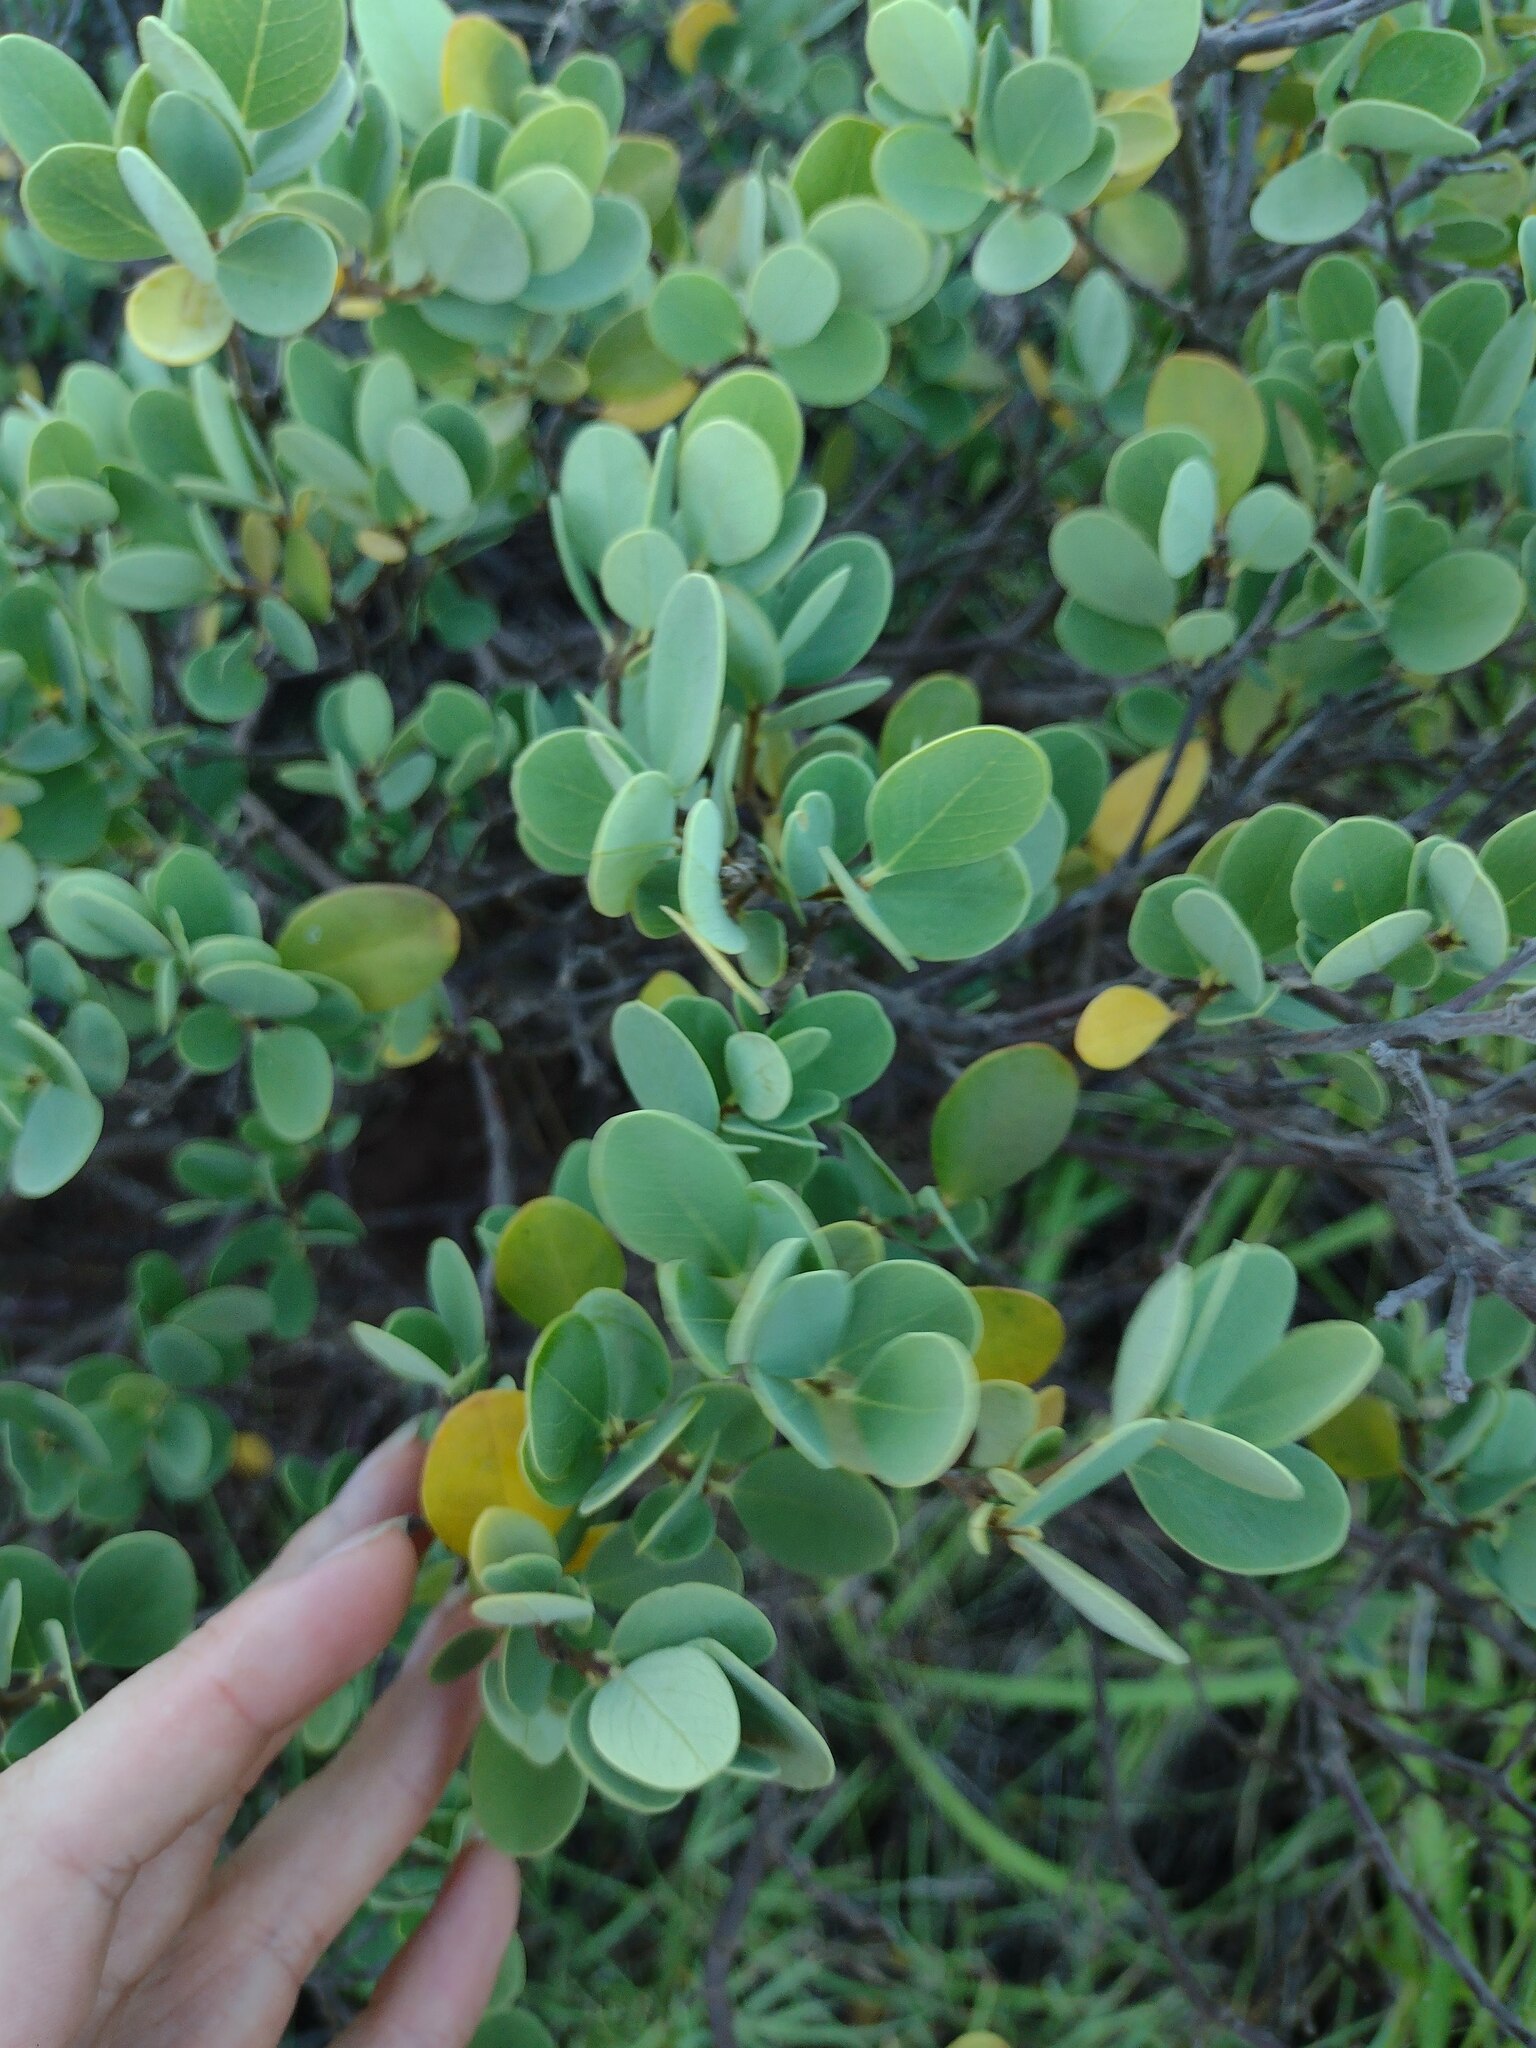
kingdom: Plantae
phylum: Tracheophyta
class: Magnoliopsida
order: Malvales
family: Thymelaeaceae
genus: Wikstroemia
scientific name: Wikstroemia uva-ursi
